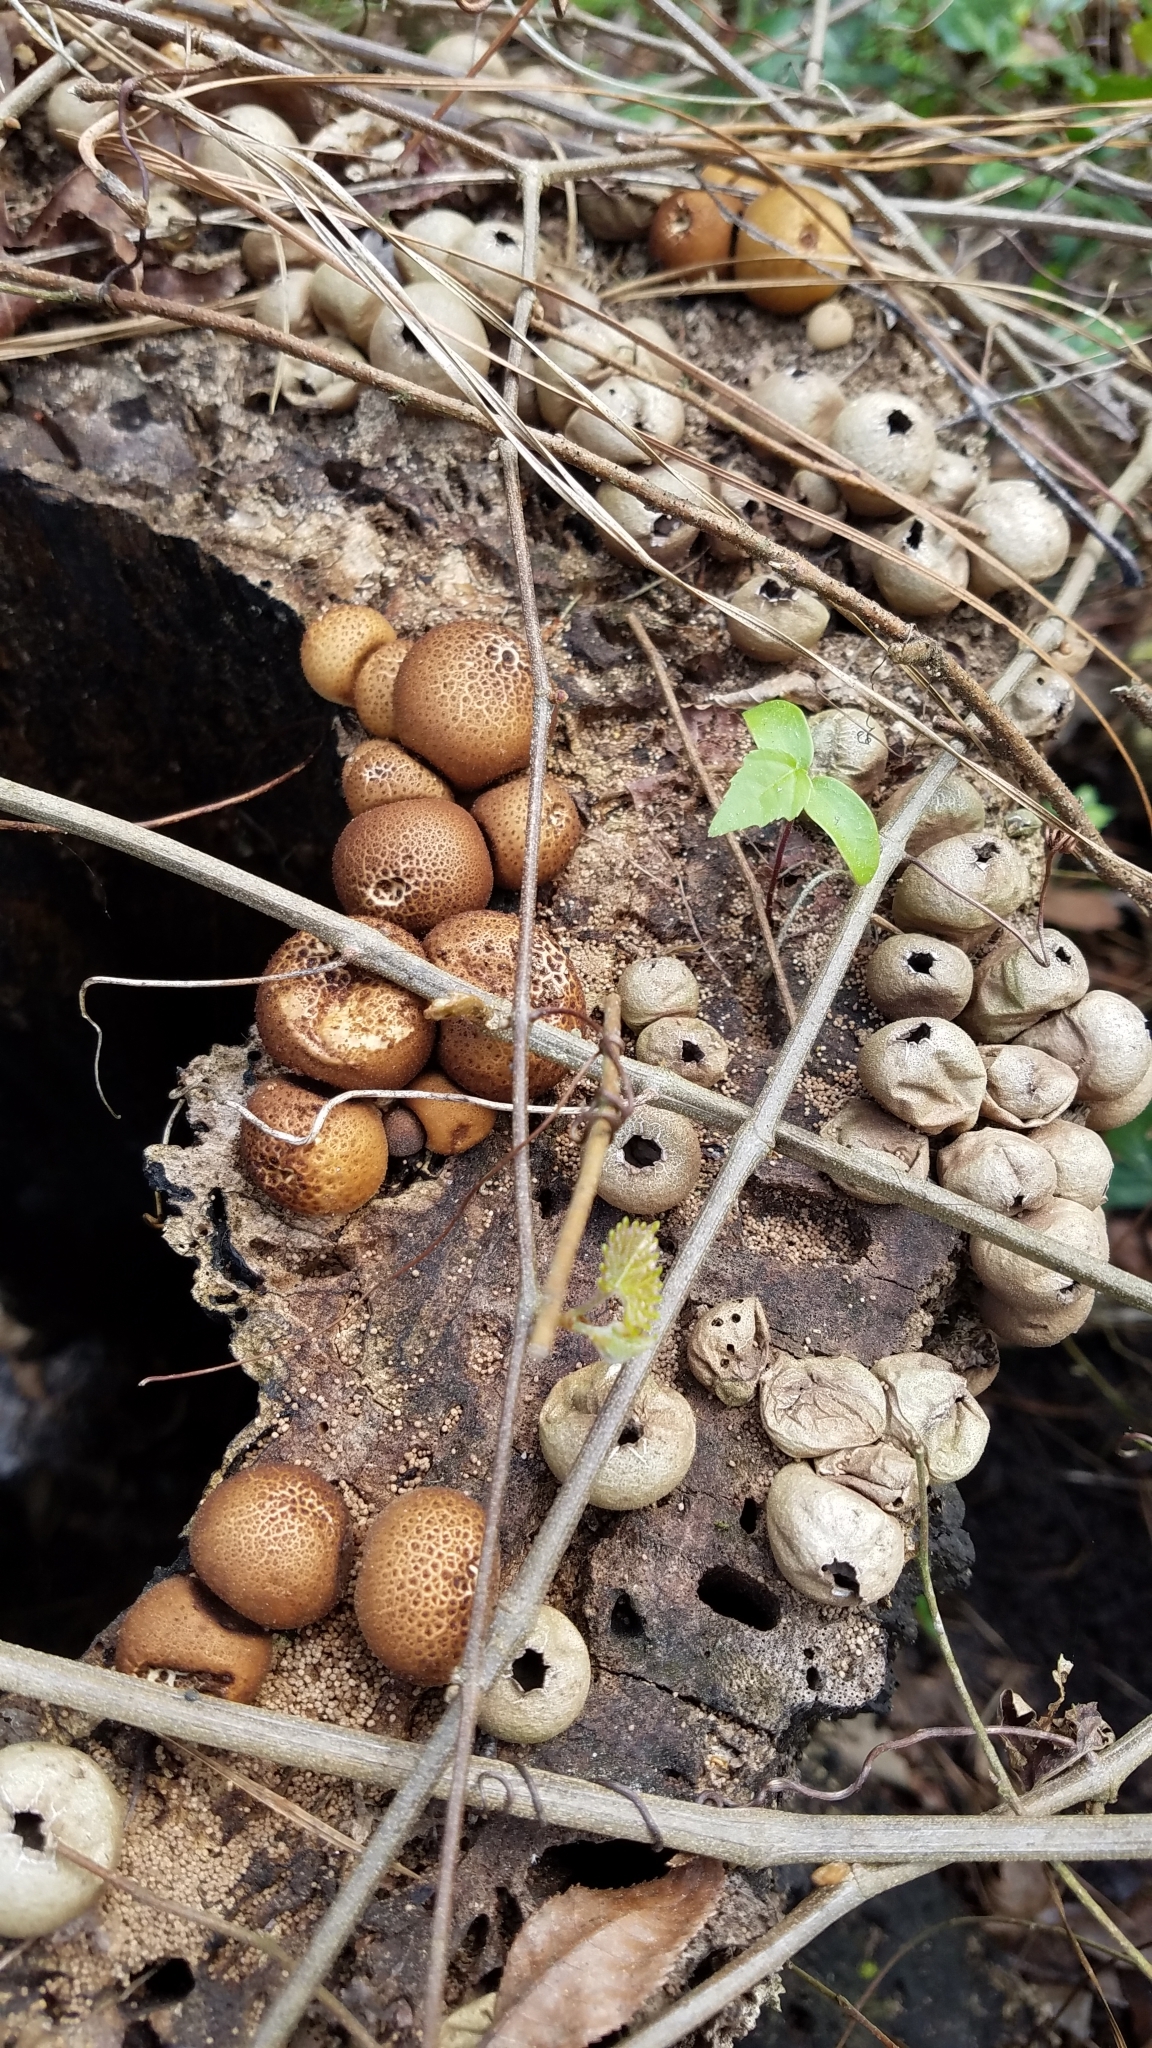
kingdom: Fungi
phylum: Basidiomycota
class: Agaricomycetes
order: Agaricales
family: Lycoperdaceae
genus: Apioperdon
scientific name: Apioperdon pyriforme
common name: Pear-shaped puffball
